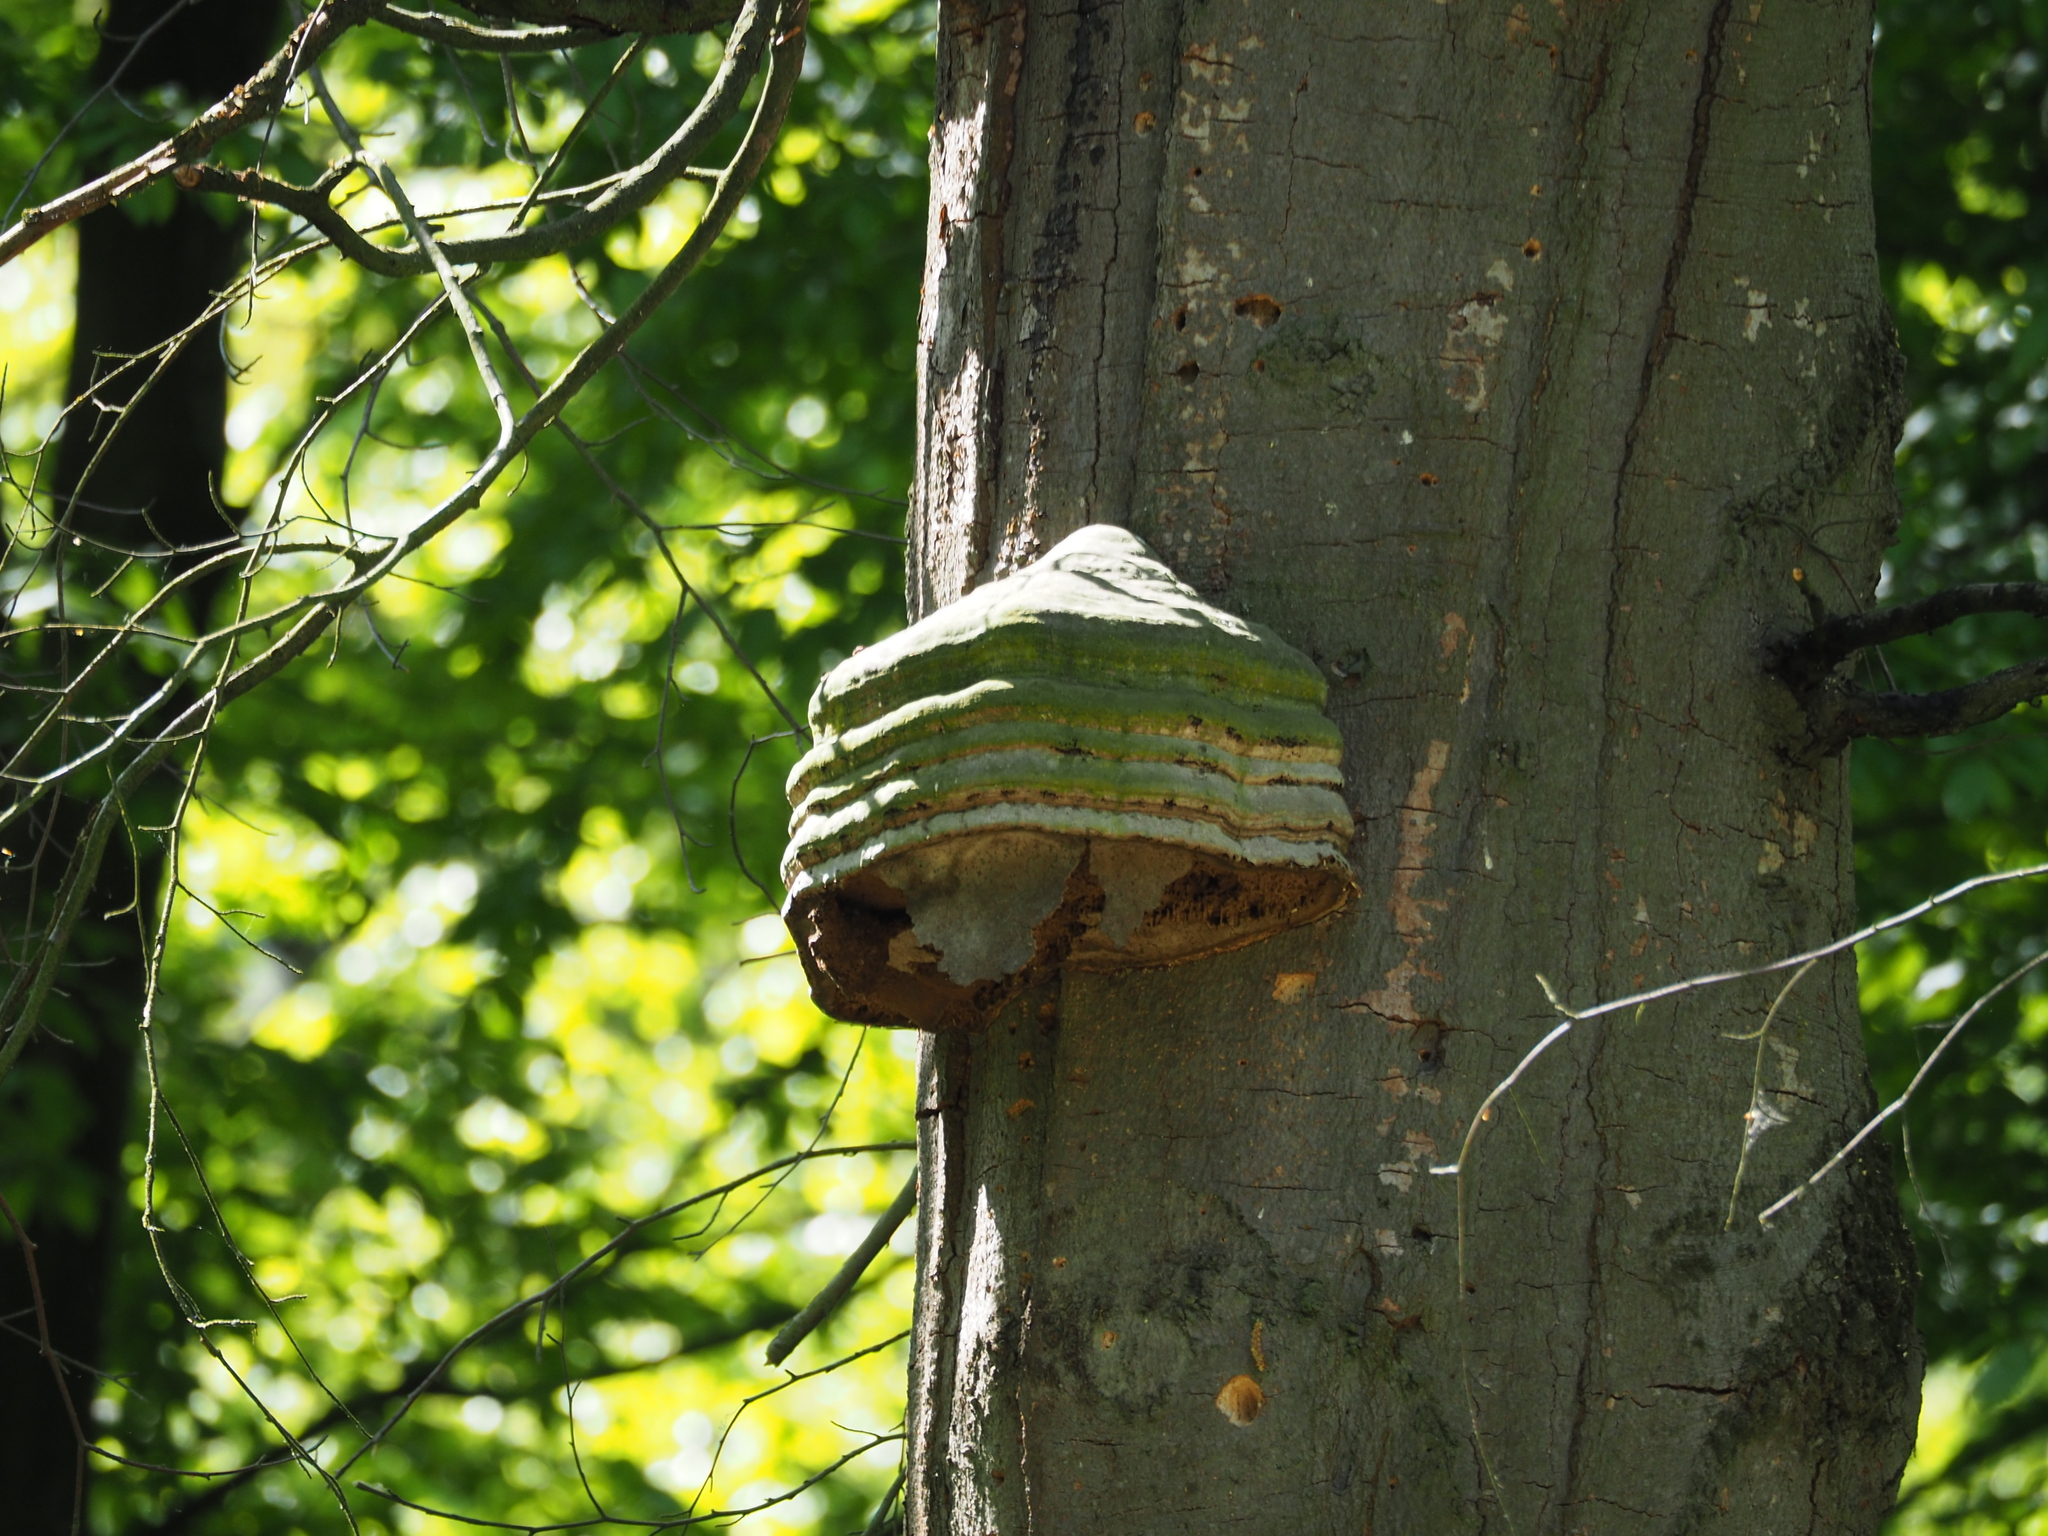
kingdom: Fungi
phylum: Basidiomycota
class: Agaricomycetes
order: Polyporales
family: Polyporaceae
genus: Fomes
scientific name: Fomes fomentarius
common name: Hoof fungus
